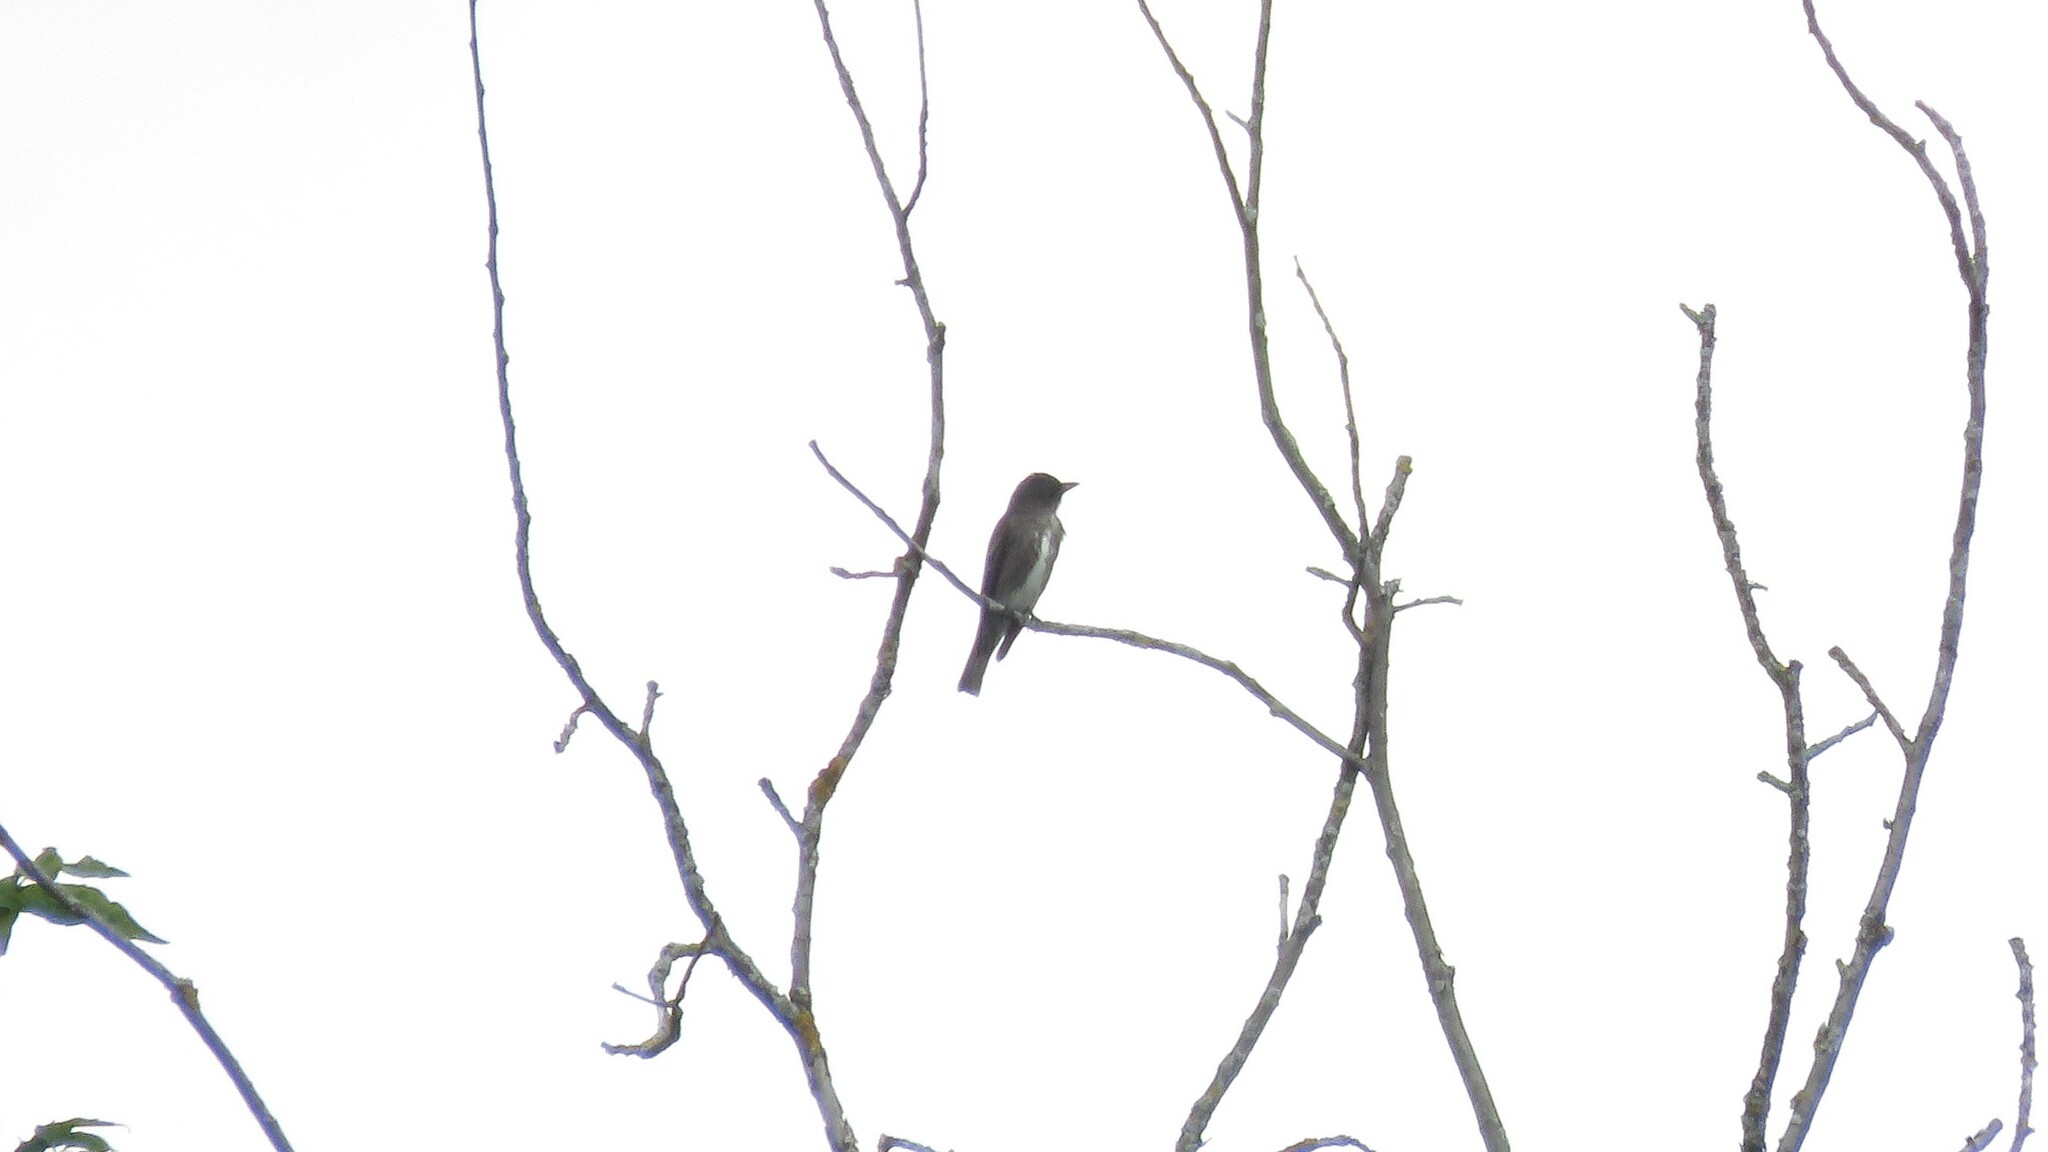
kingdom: Animalia
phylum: Chordata
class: Aves
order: Passeriformes
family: Tyrannidae
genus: Contopus
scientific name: Contopus cooperi
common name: Olive-sided flycatcher
